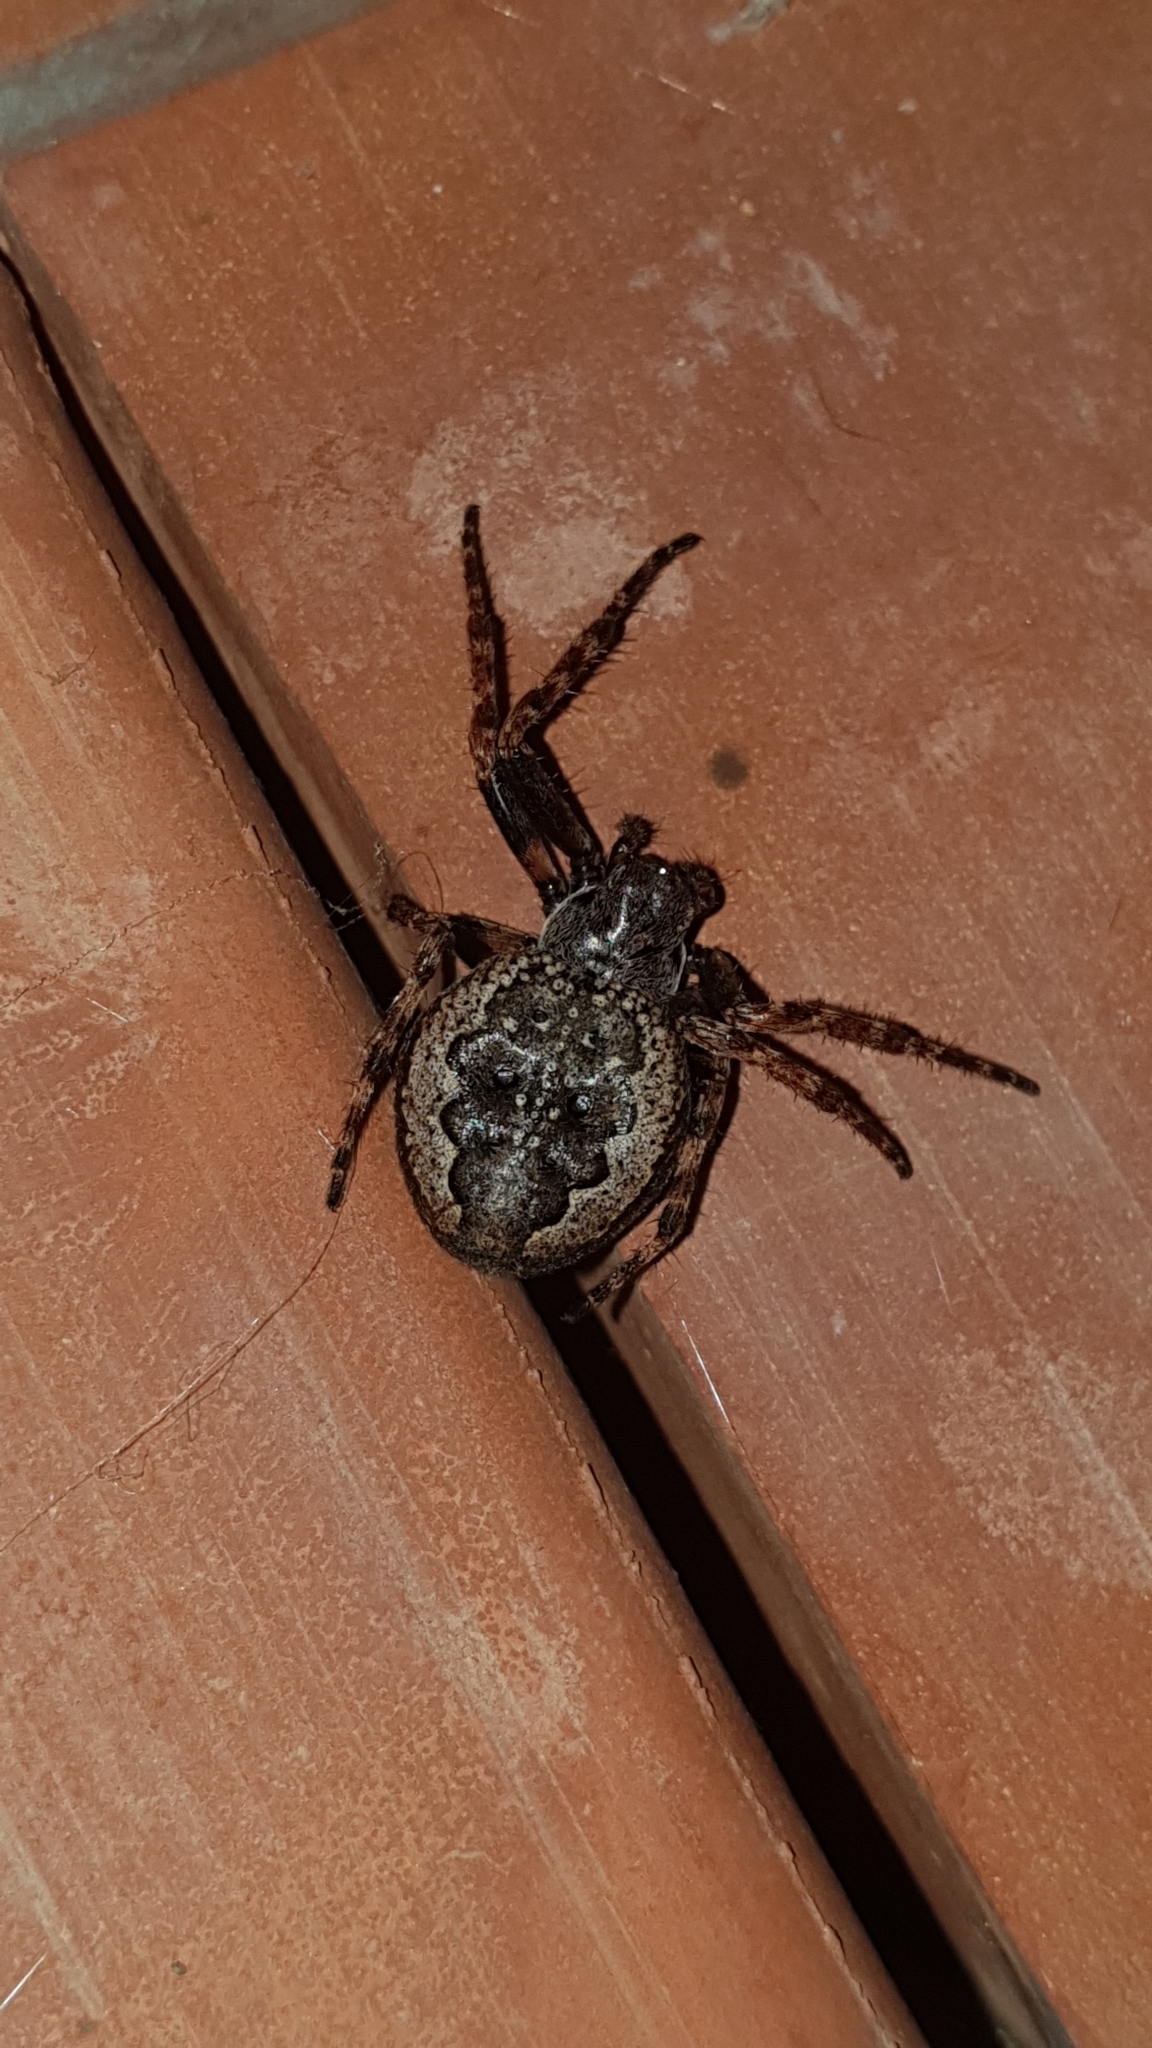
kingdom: Animalia
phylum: Arthropoda
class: Arachnida
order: Araneae
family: Araneidae
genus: Nuctenea
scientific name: Nuctenea umbratica
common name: Toad spider
